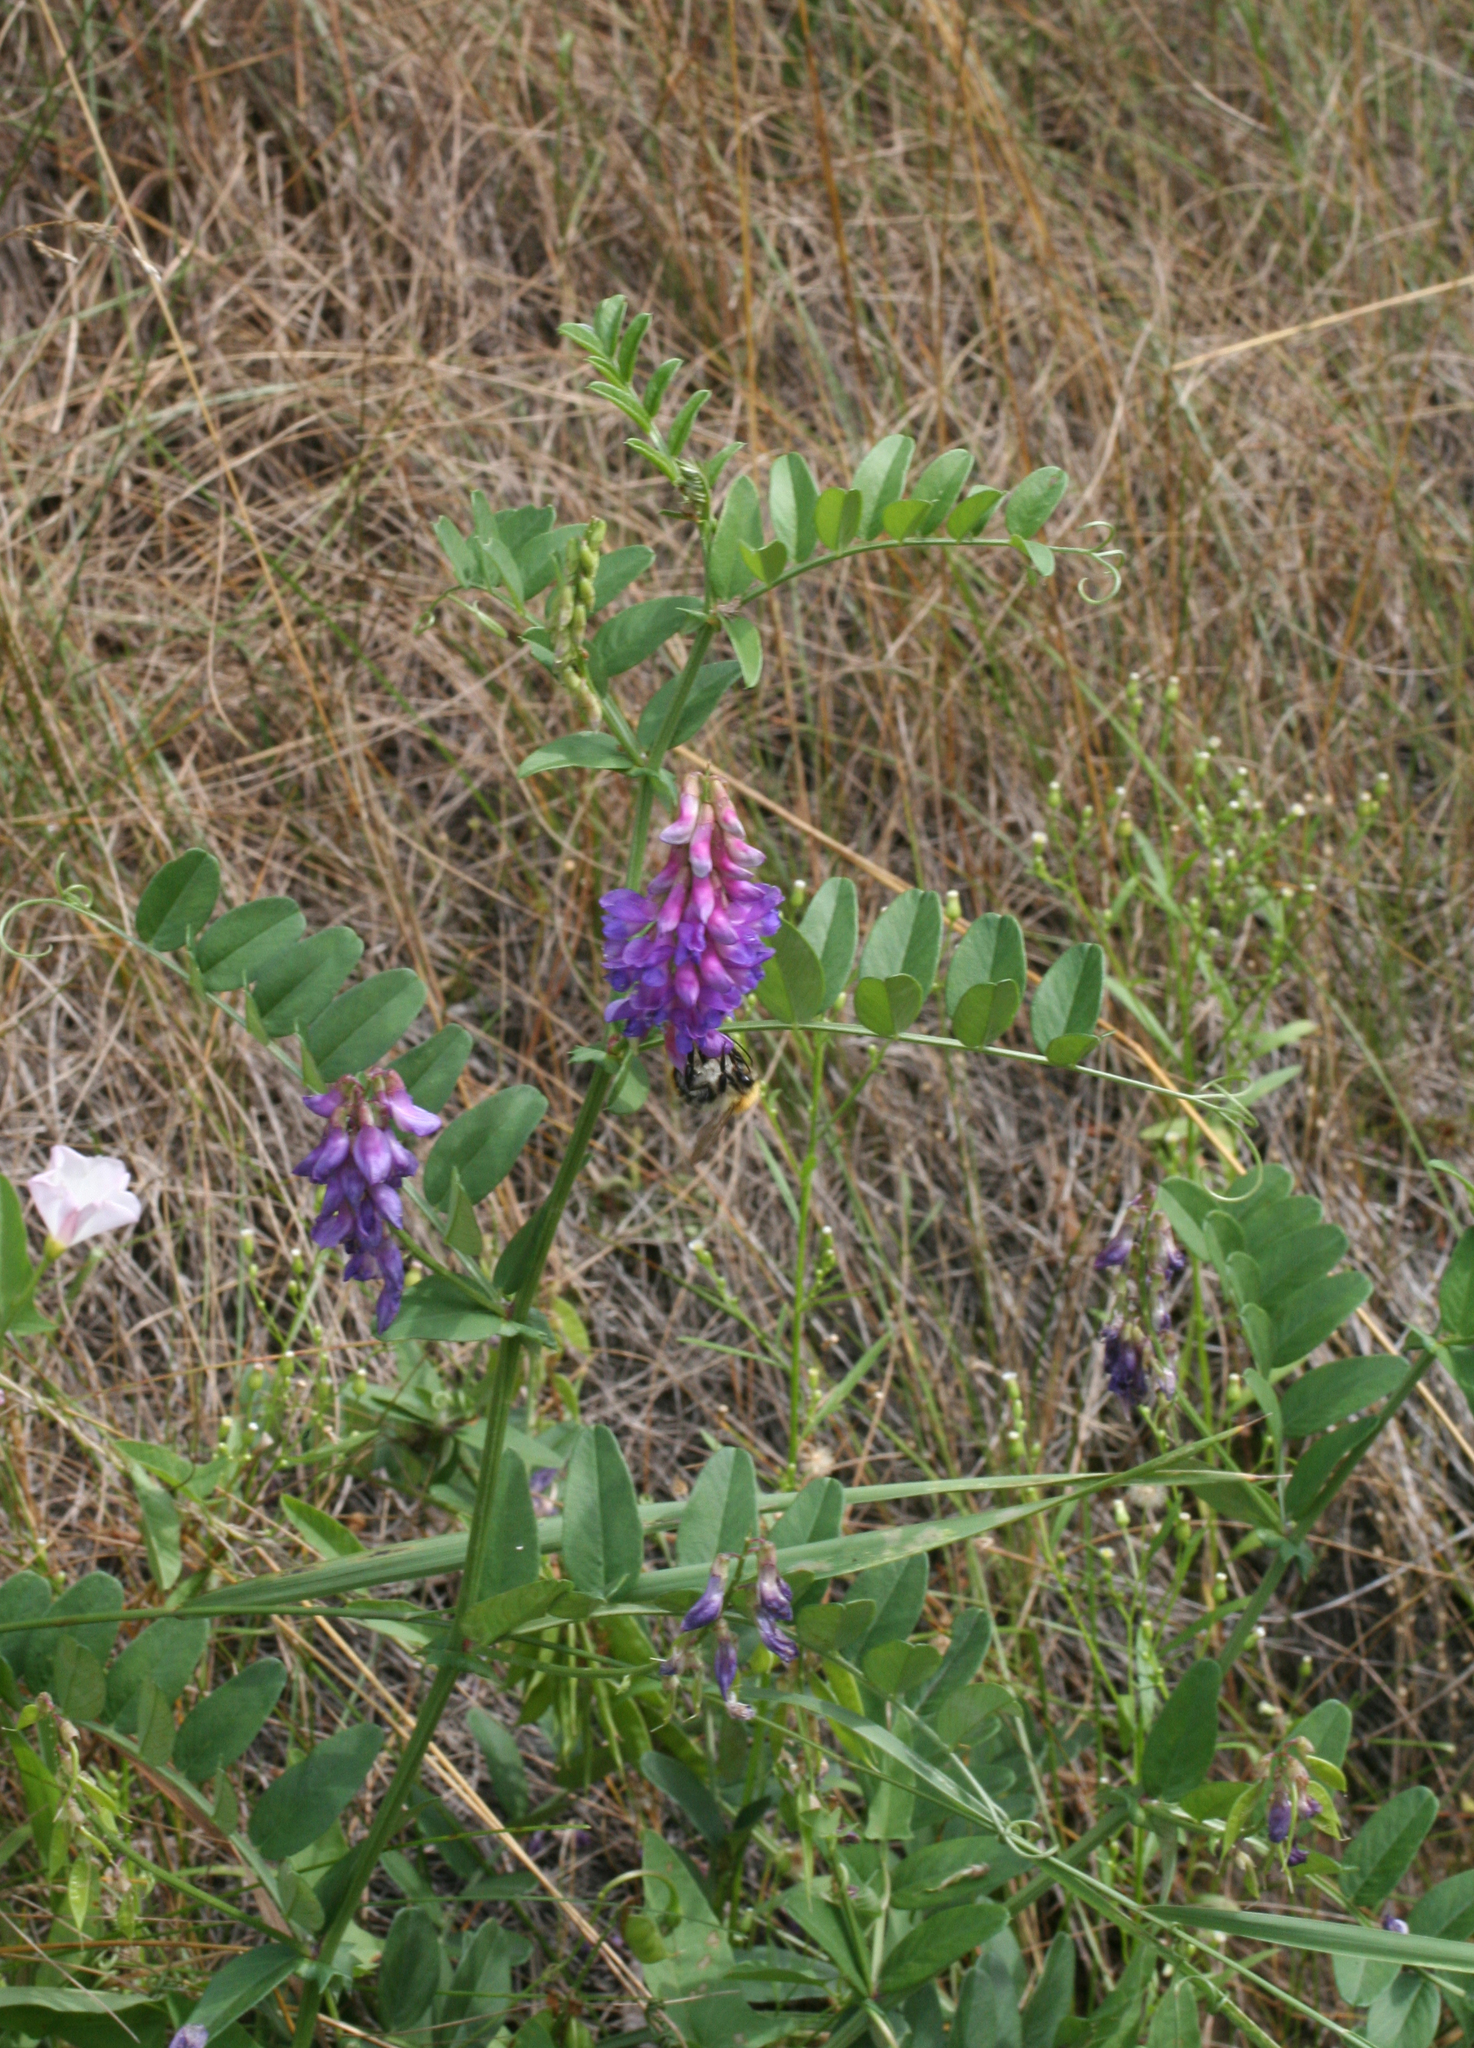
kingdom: Plantae
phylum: Tracheophyta
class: Magnoliopsida
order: Fabales
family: Fabaceae
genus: Vicia
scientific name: Vicia amoena
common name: Cheder ebs
